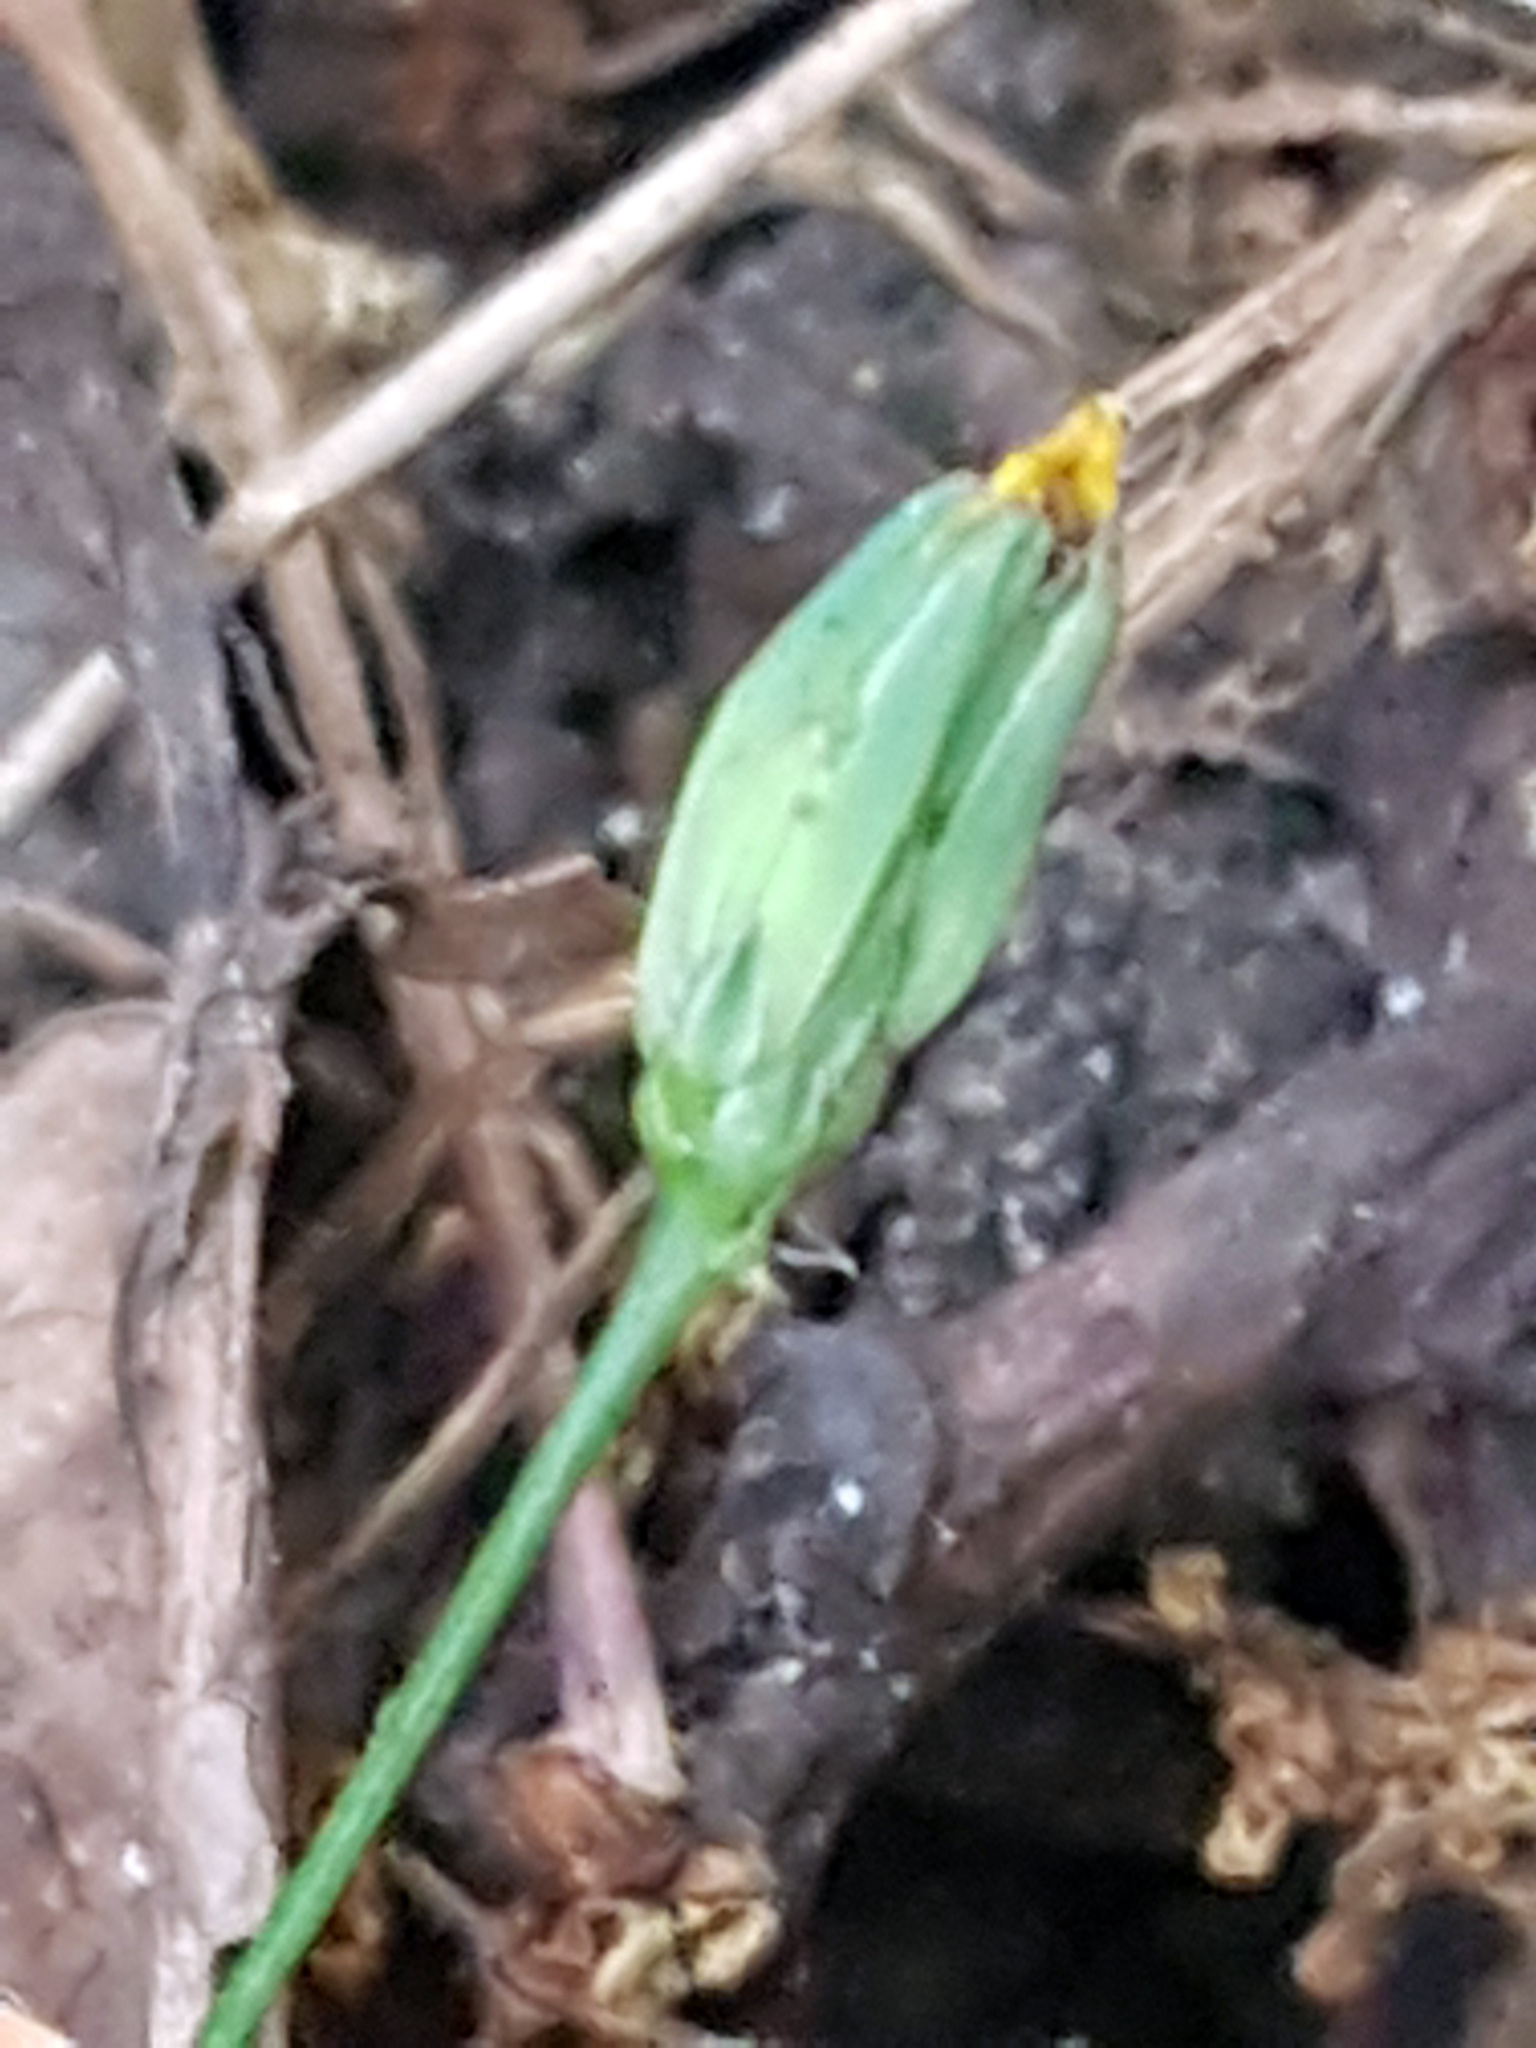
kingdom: Plantae
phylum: Tracheophyta
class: Magnoliopsida
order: Asterales
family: Asteraceae
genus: Lapsana
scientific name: Lapsana communis
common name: Nipplewort
